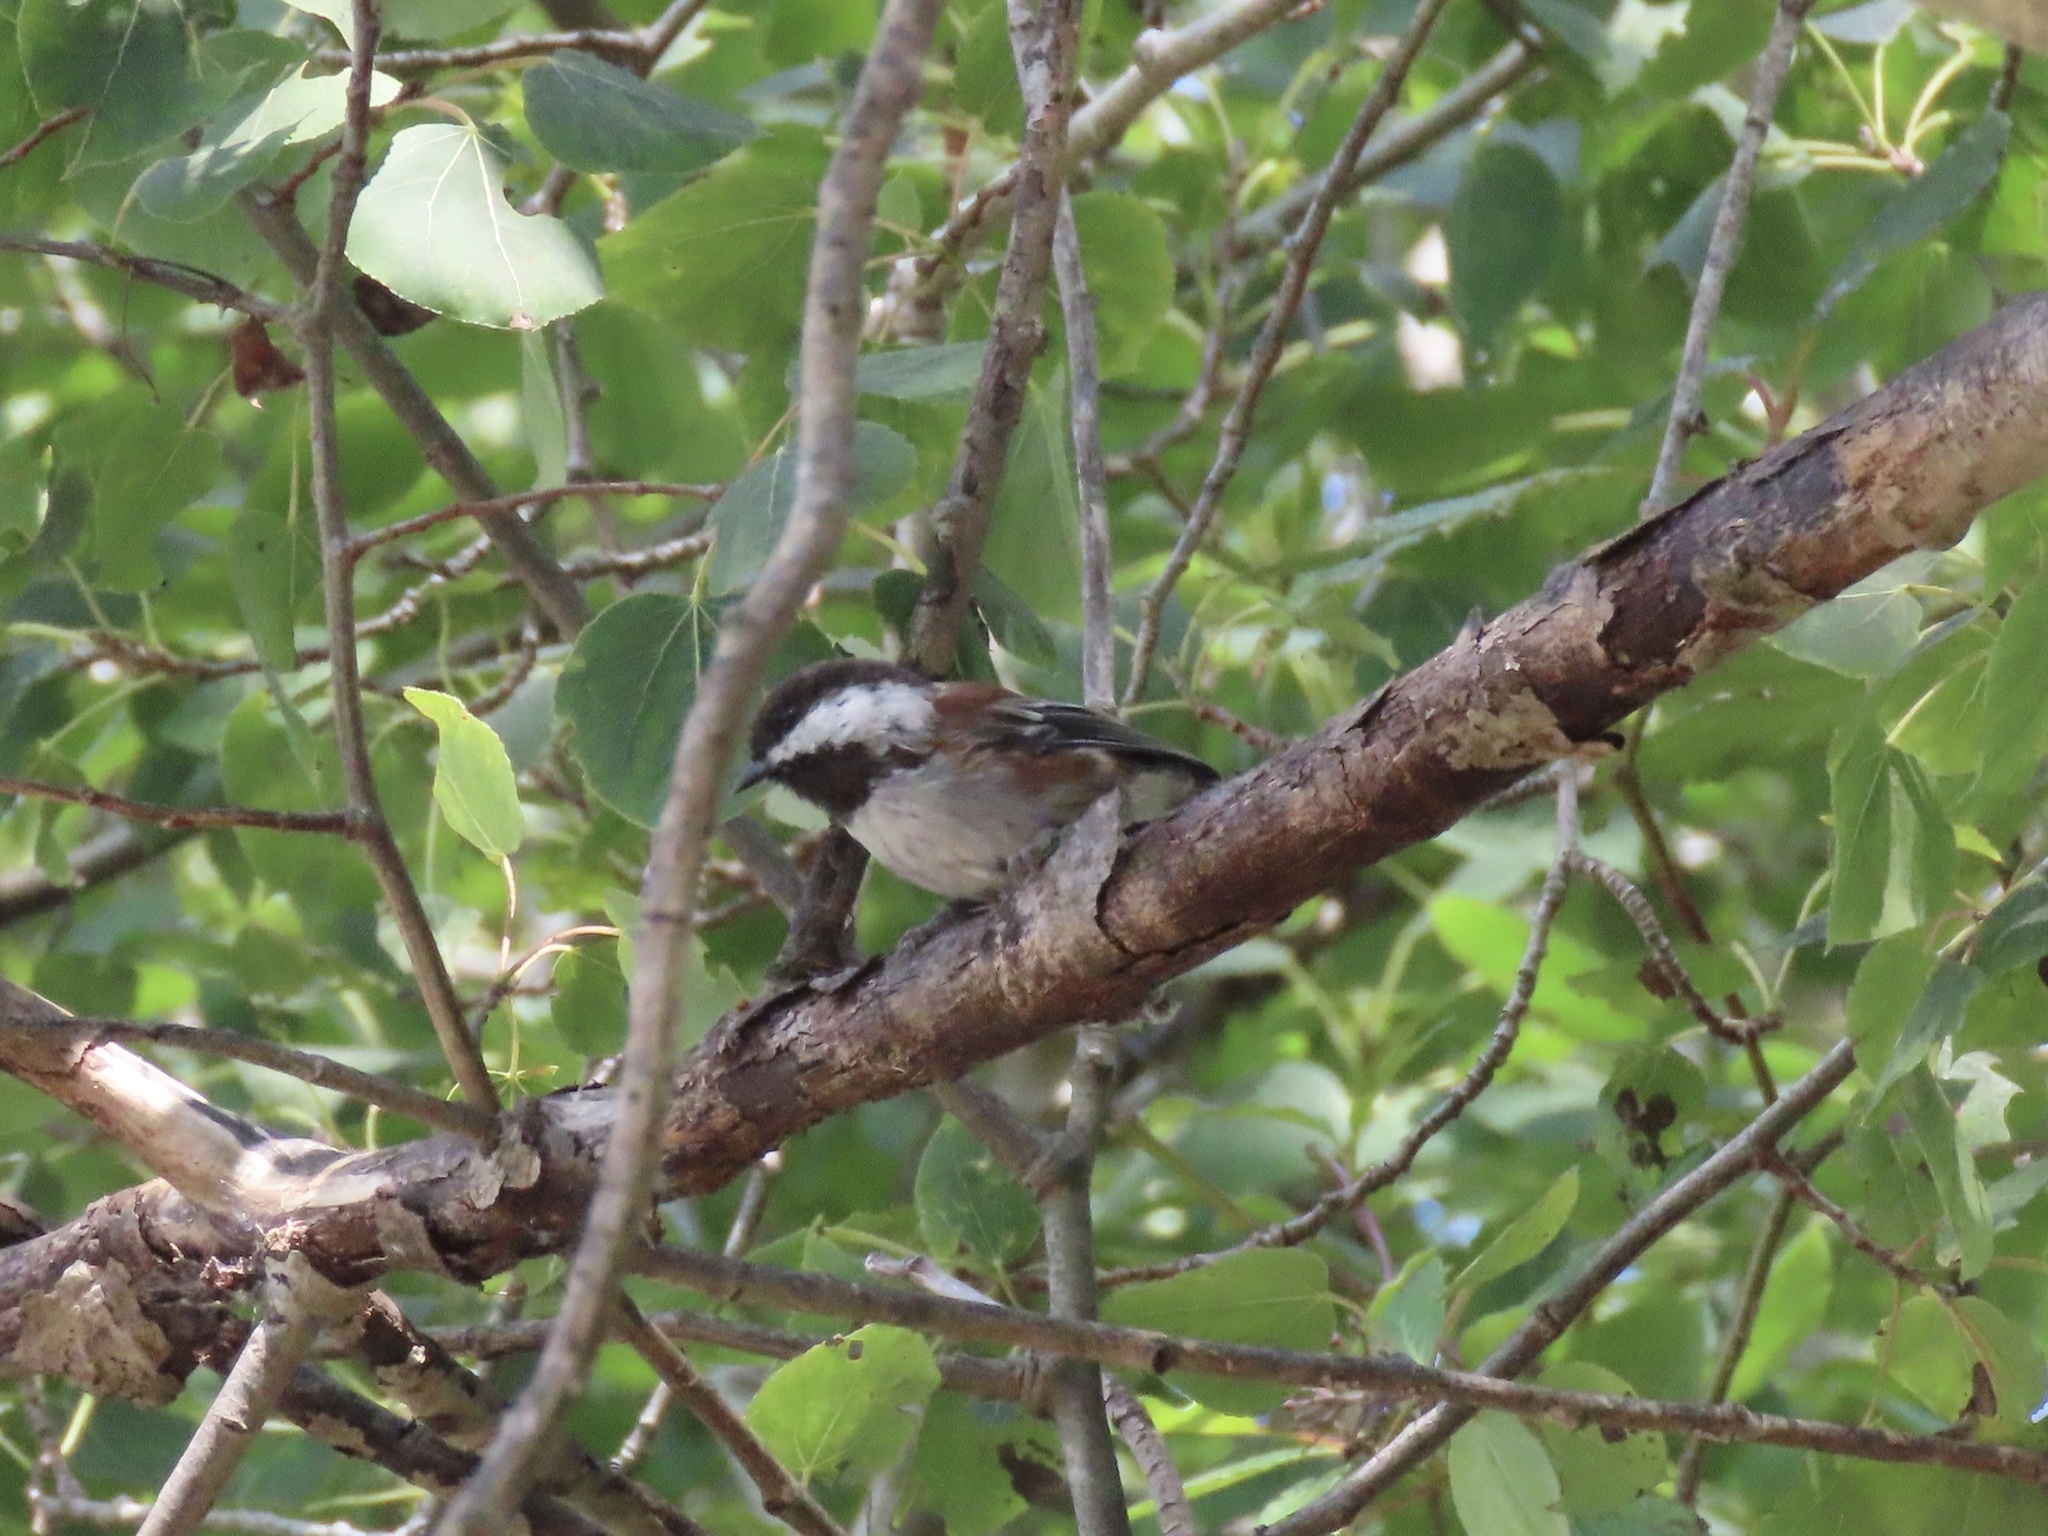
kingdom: Animalia
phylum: Chordata
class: Aves
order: Passeriformes
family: Paridae
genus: Poecile
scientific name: Poecile rufescens
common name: Chestnut-backed chickadee
